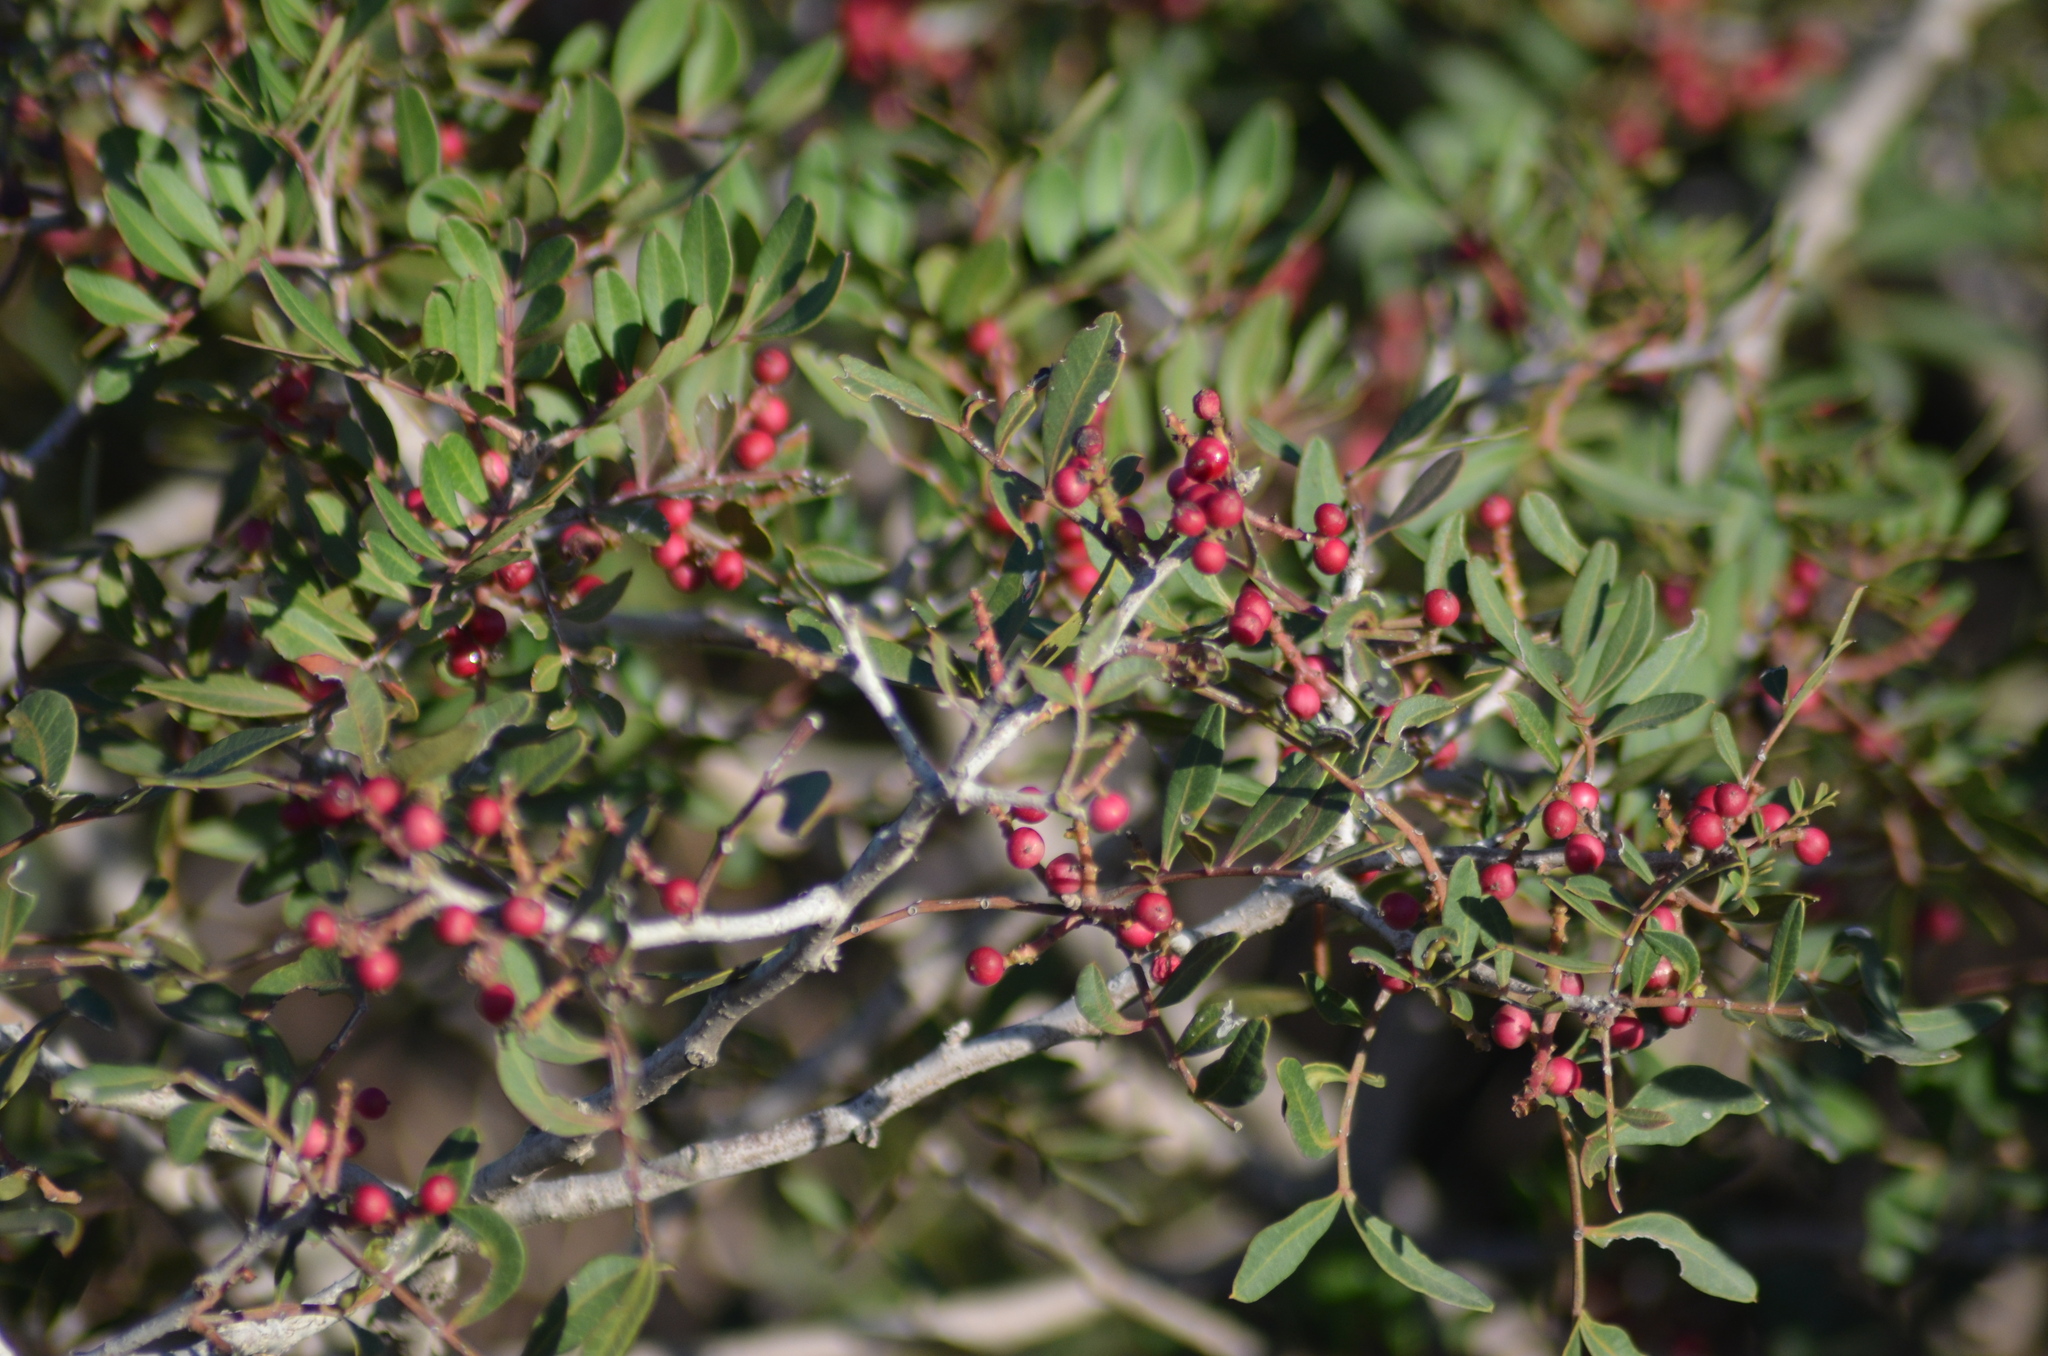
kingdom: Plantae
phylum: Tracheophyta
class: Magnoliopsida
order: Sapindales
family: Anacardiaceae
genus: Pistacia
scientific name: Pistacia lentiscus
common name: Lentisk
